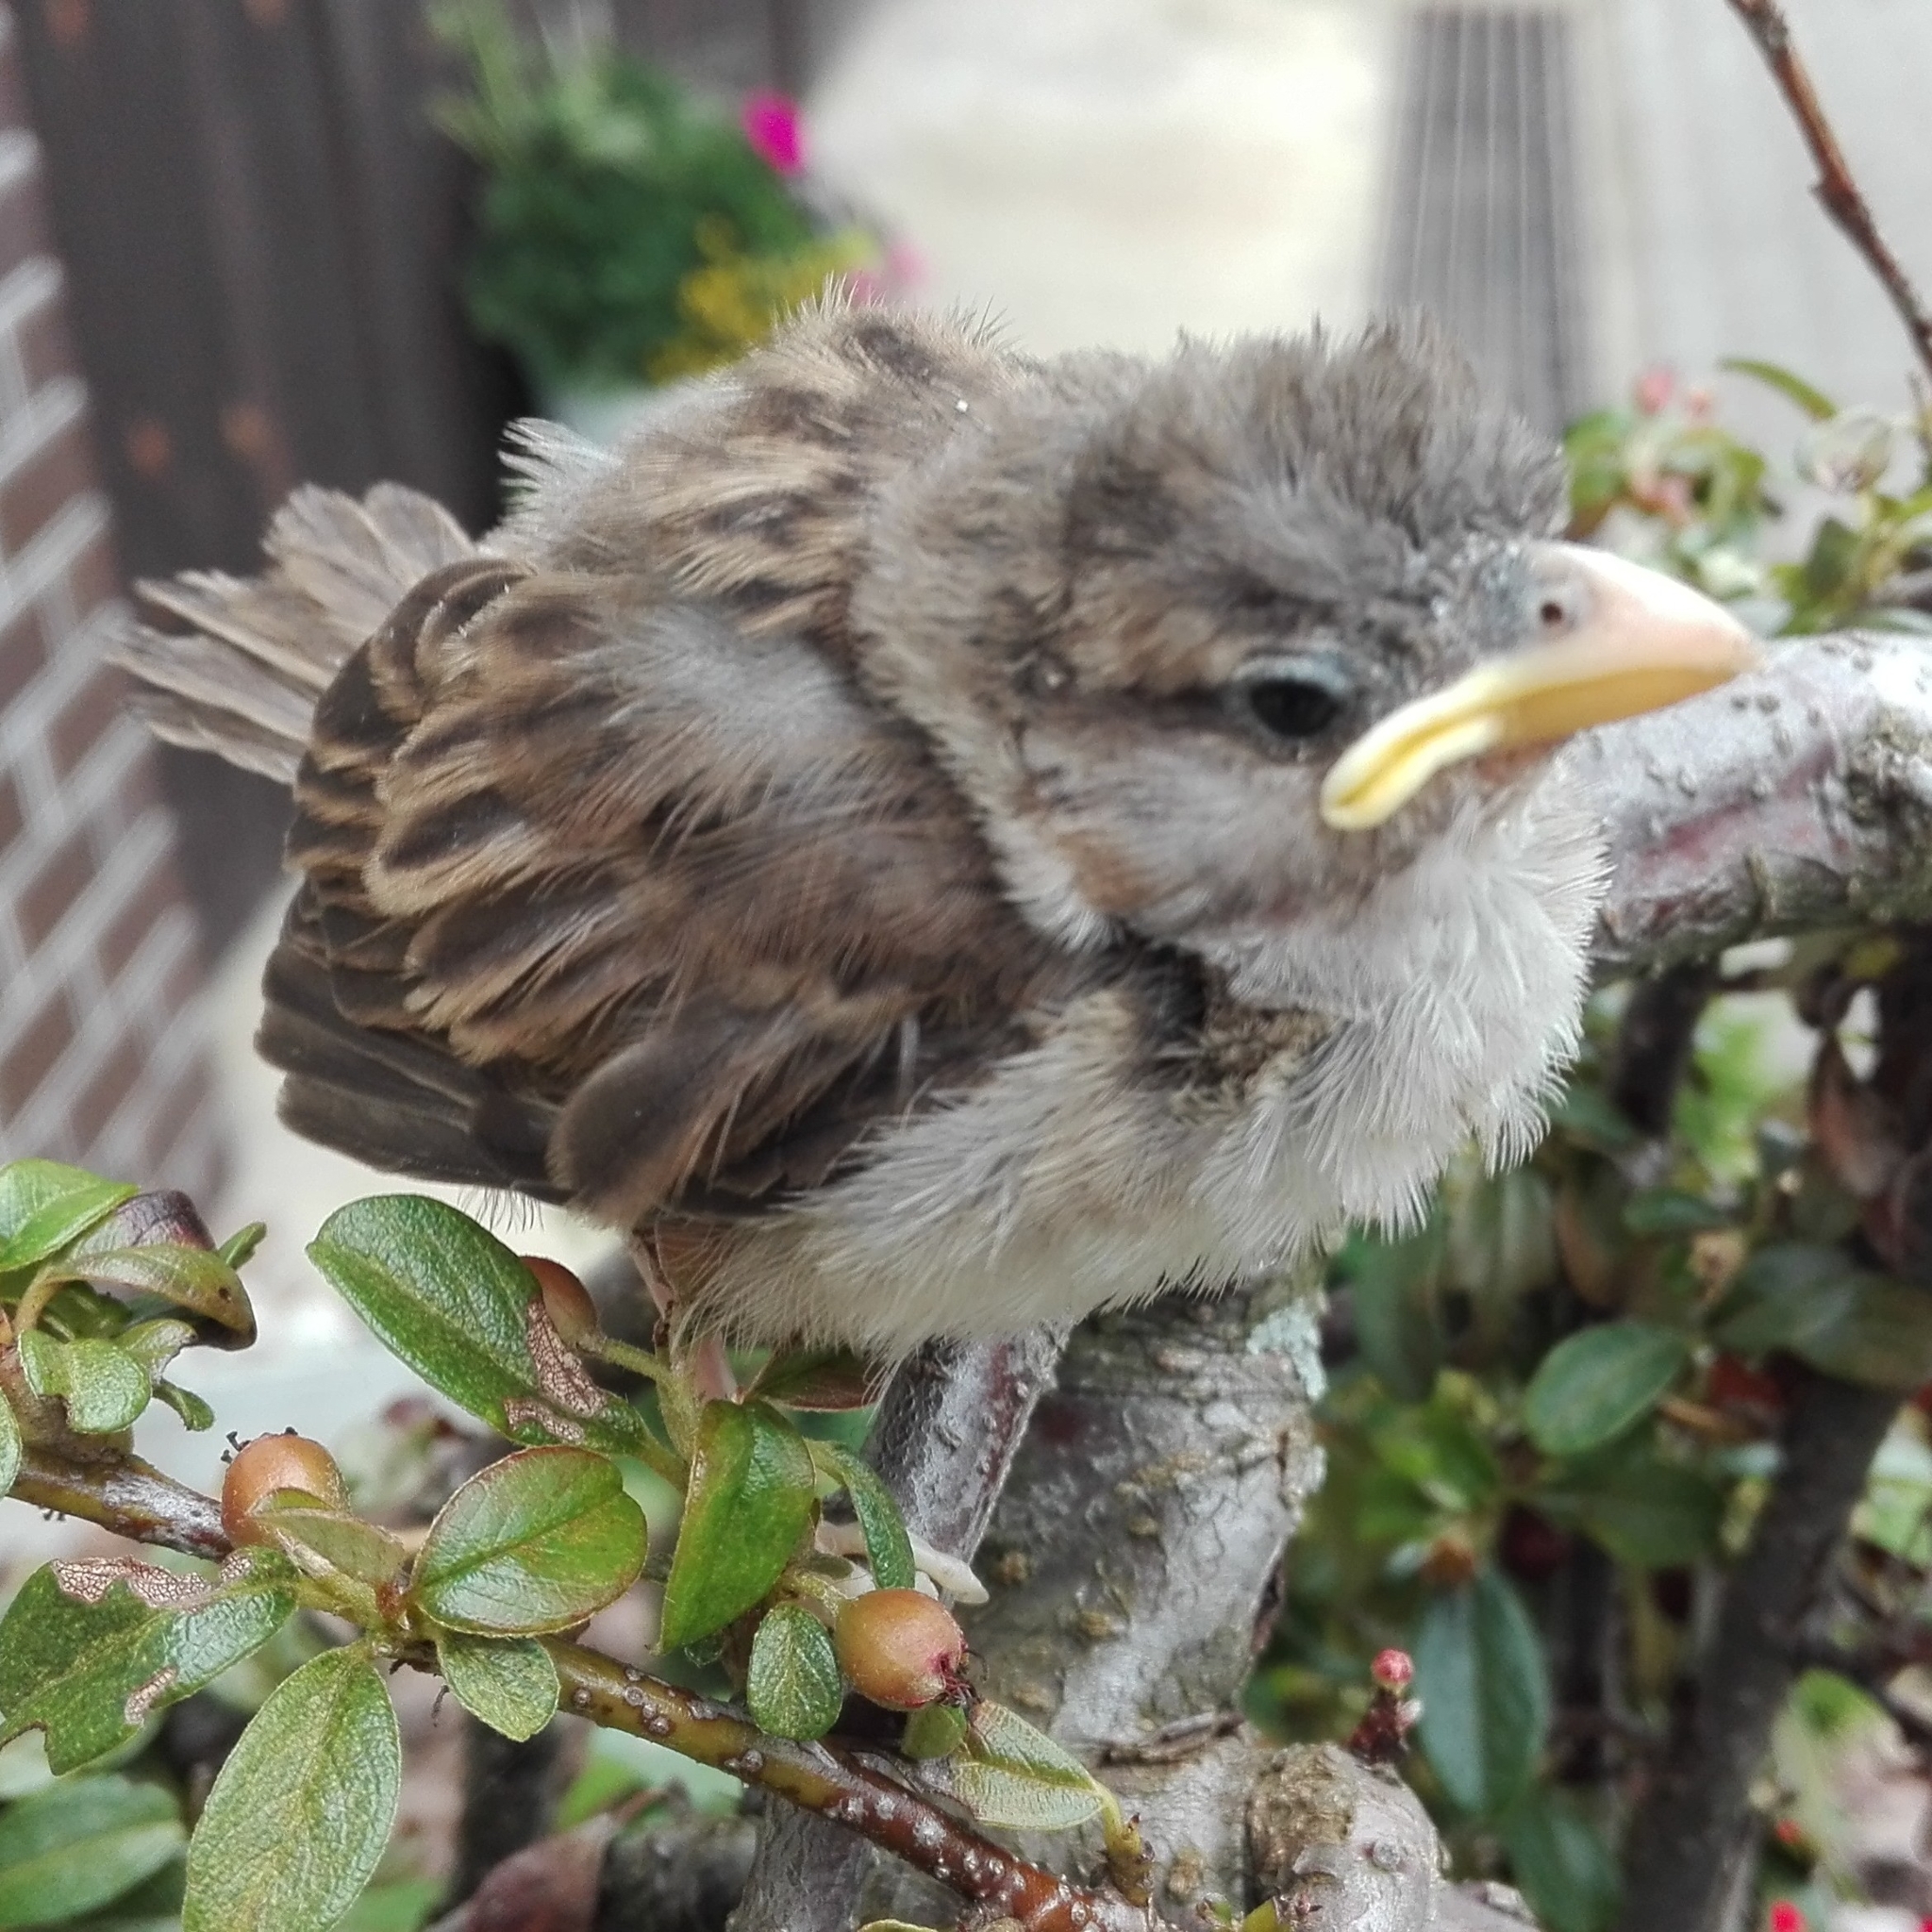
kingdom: Animalia
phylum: Chordata
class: Aves
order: Passeriformes
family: Passeridae
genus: Passer
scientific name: Passer domesticus
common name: House sparrow
